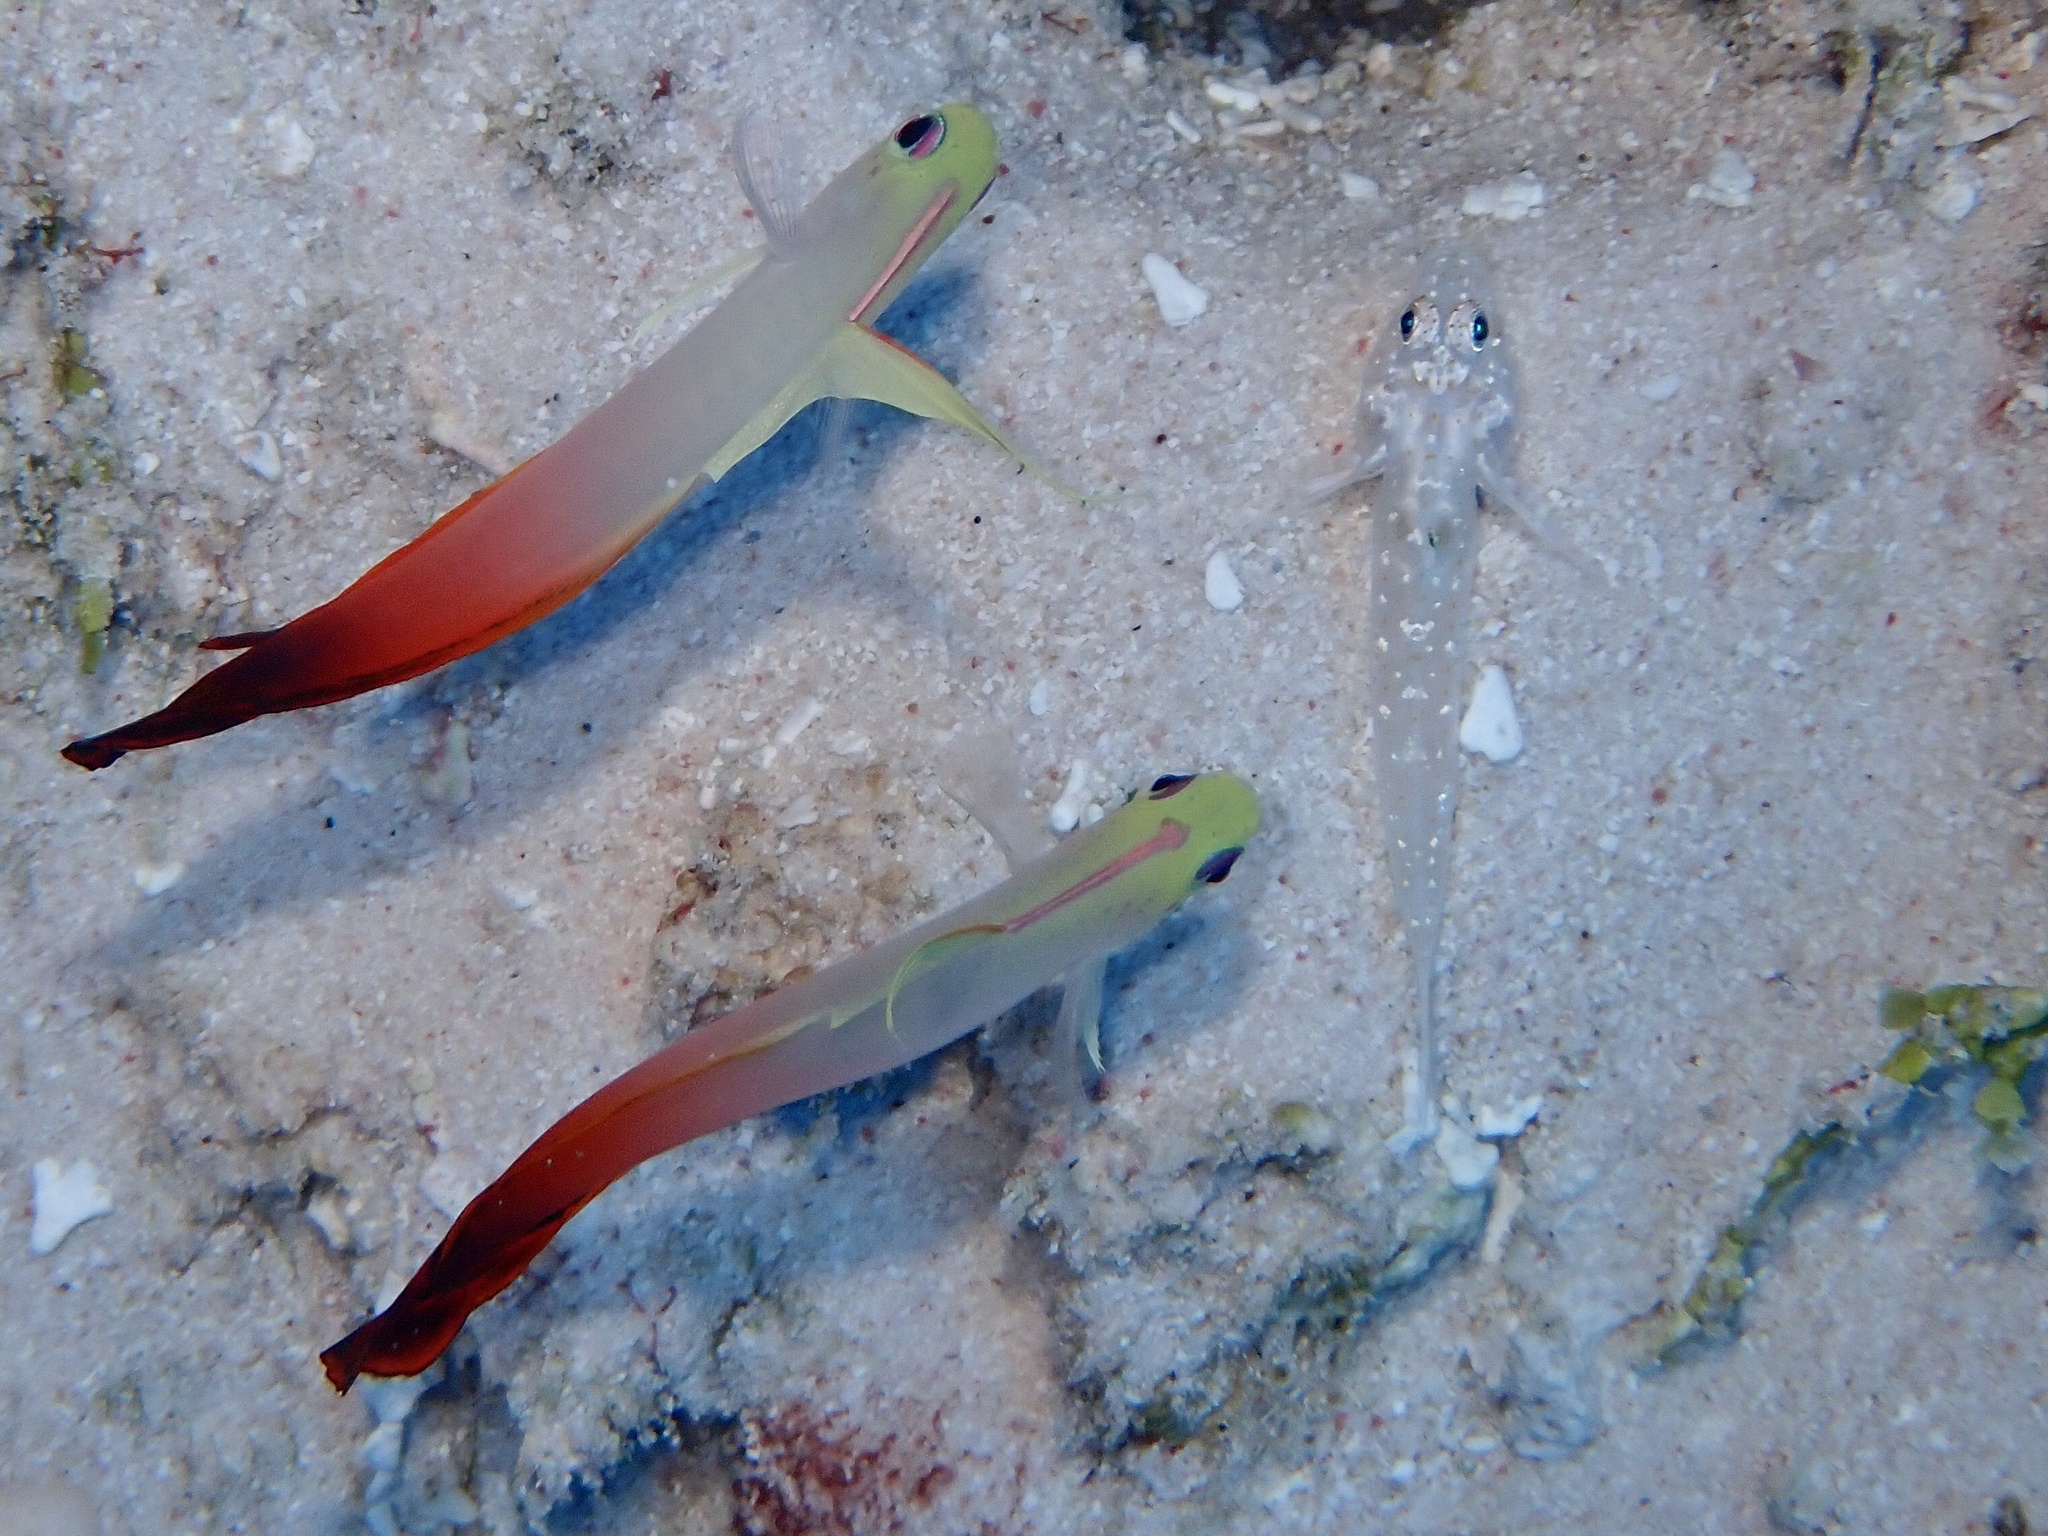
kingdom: Animalia
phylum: Chordata
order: Perciformes
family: Microdesmidae
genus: Nemateleotris
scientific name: Nemateleotris magnifica
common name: Fire goby
